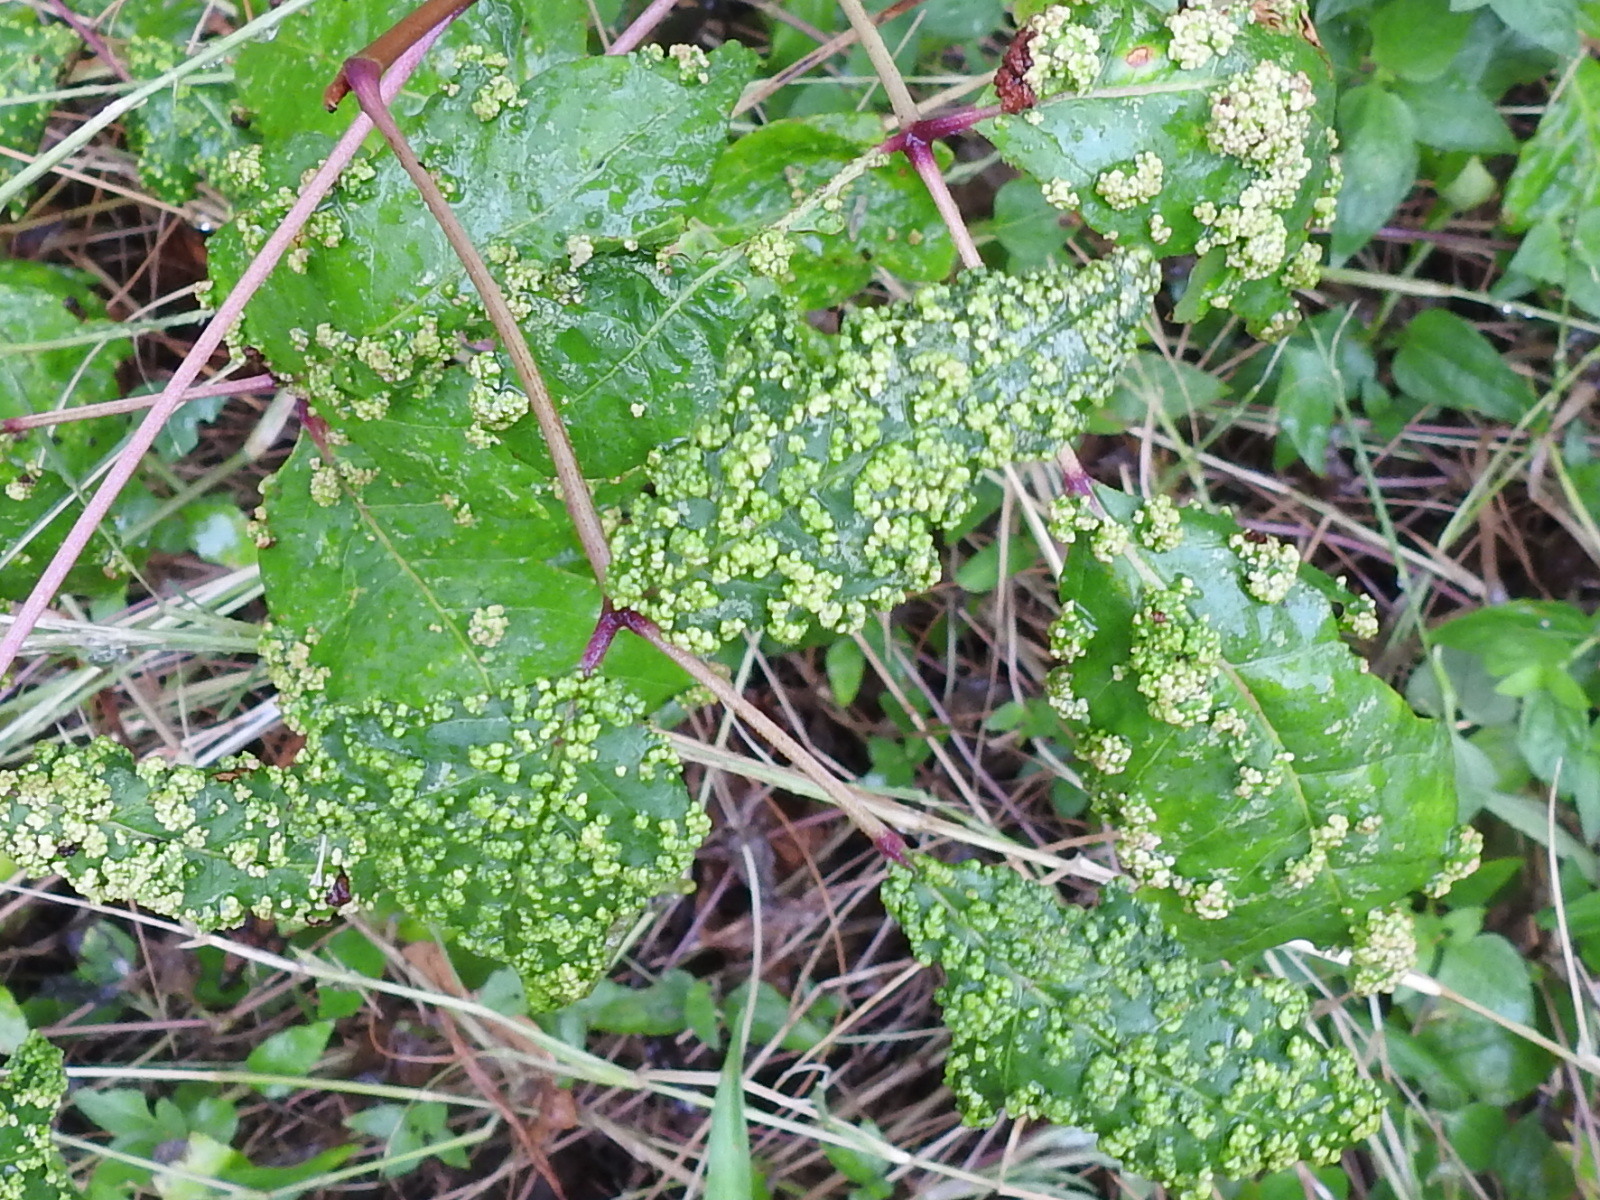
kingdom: Animalia
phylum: Arthropoda
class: Arachnida
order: Trombidiformes
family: Eriophyidae
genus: Aculops
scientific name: Aculops
